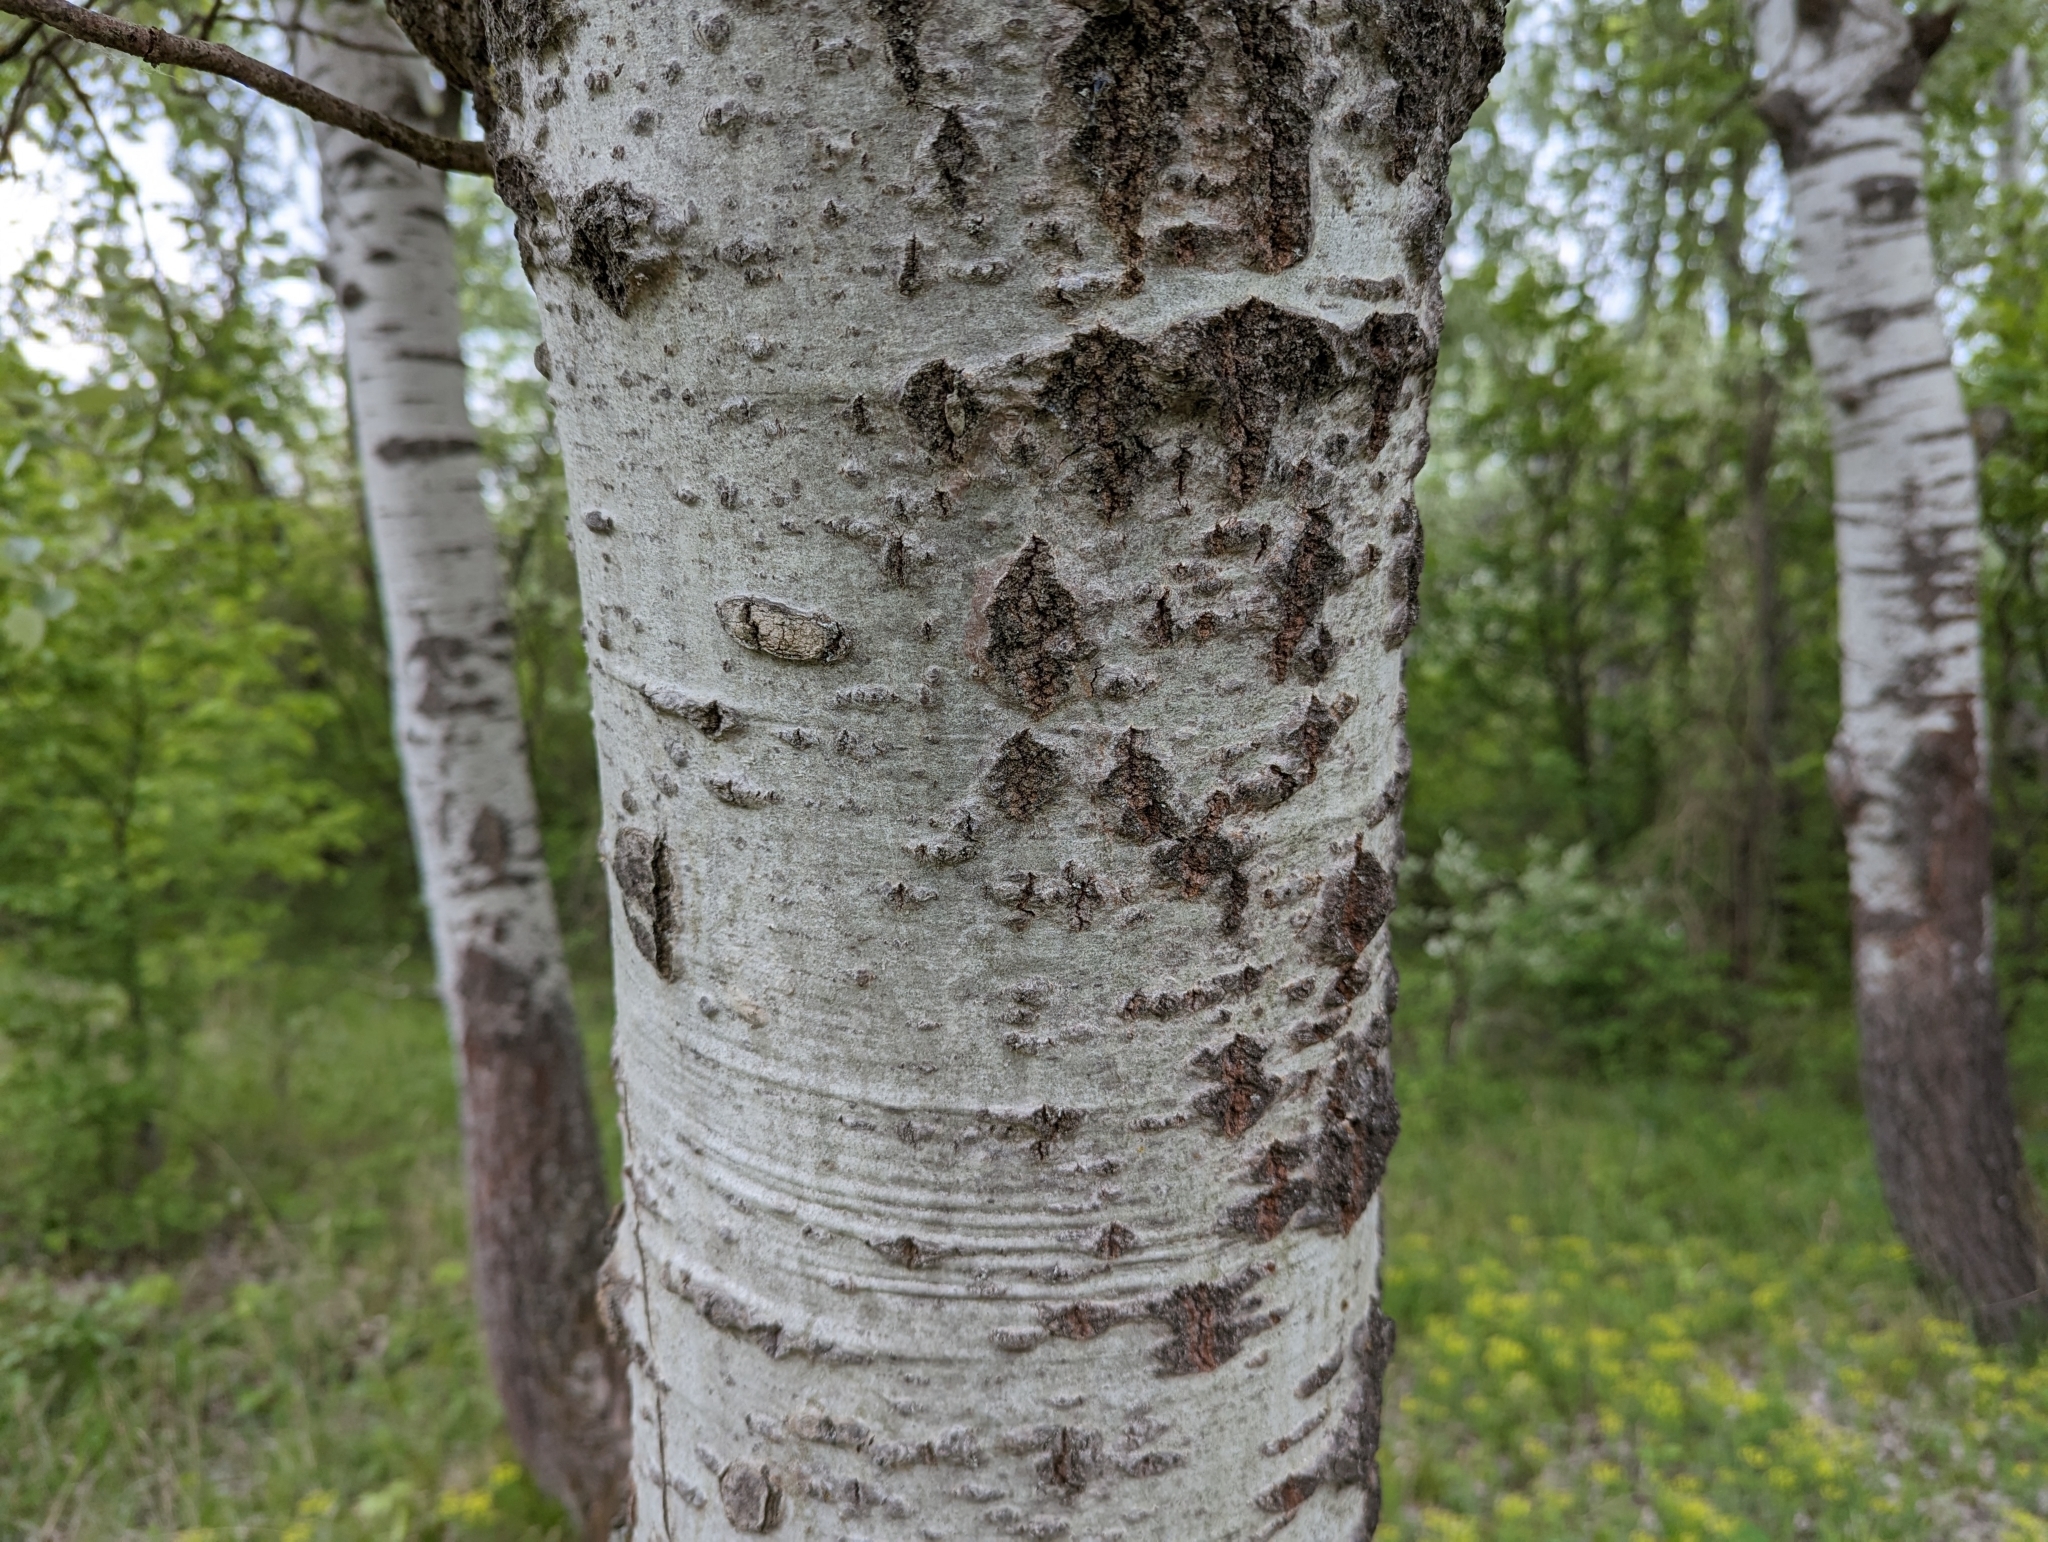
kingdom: Plantae
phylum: Tracheophyta
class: Magnoliopsida
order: Malpighiales
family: Salicaceae
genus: Populus
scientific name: Populus alba
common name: White poplar
